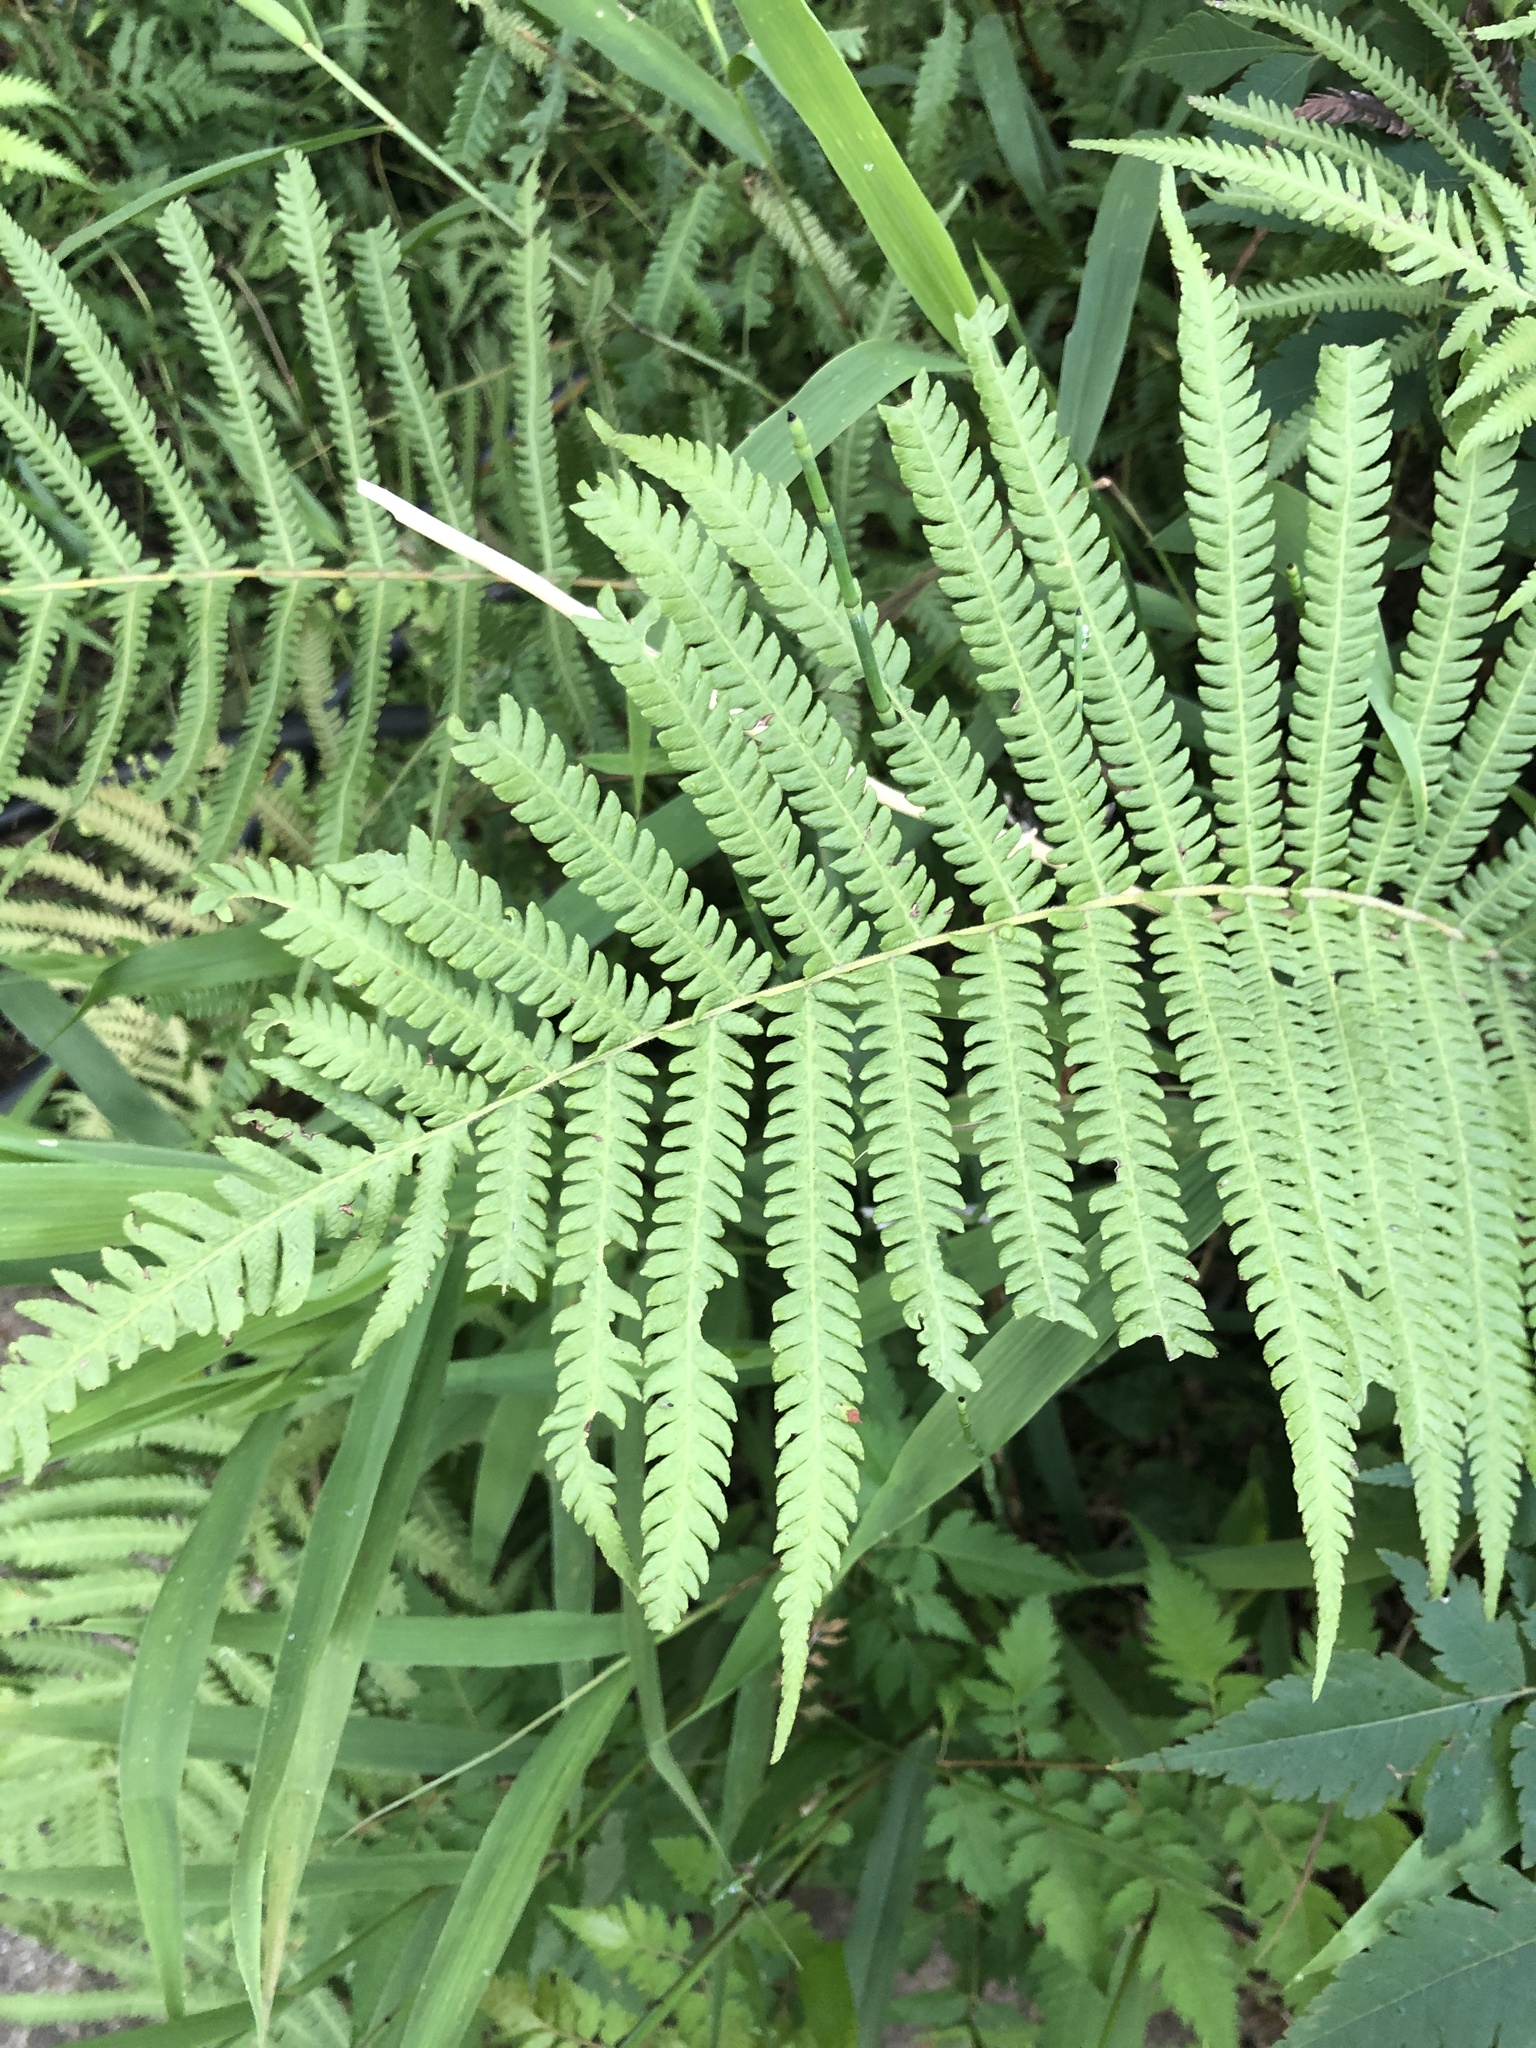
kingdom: Plantae
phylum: Tracheophyta
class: Polypodiopsida
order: Polypodiales
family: Thelypteridaceae
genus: Pelazoneuron
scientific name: Pelazoneuron kunthii
